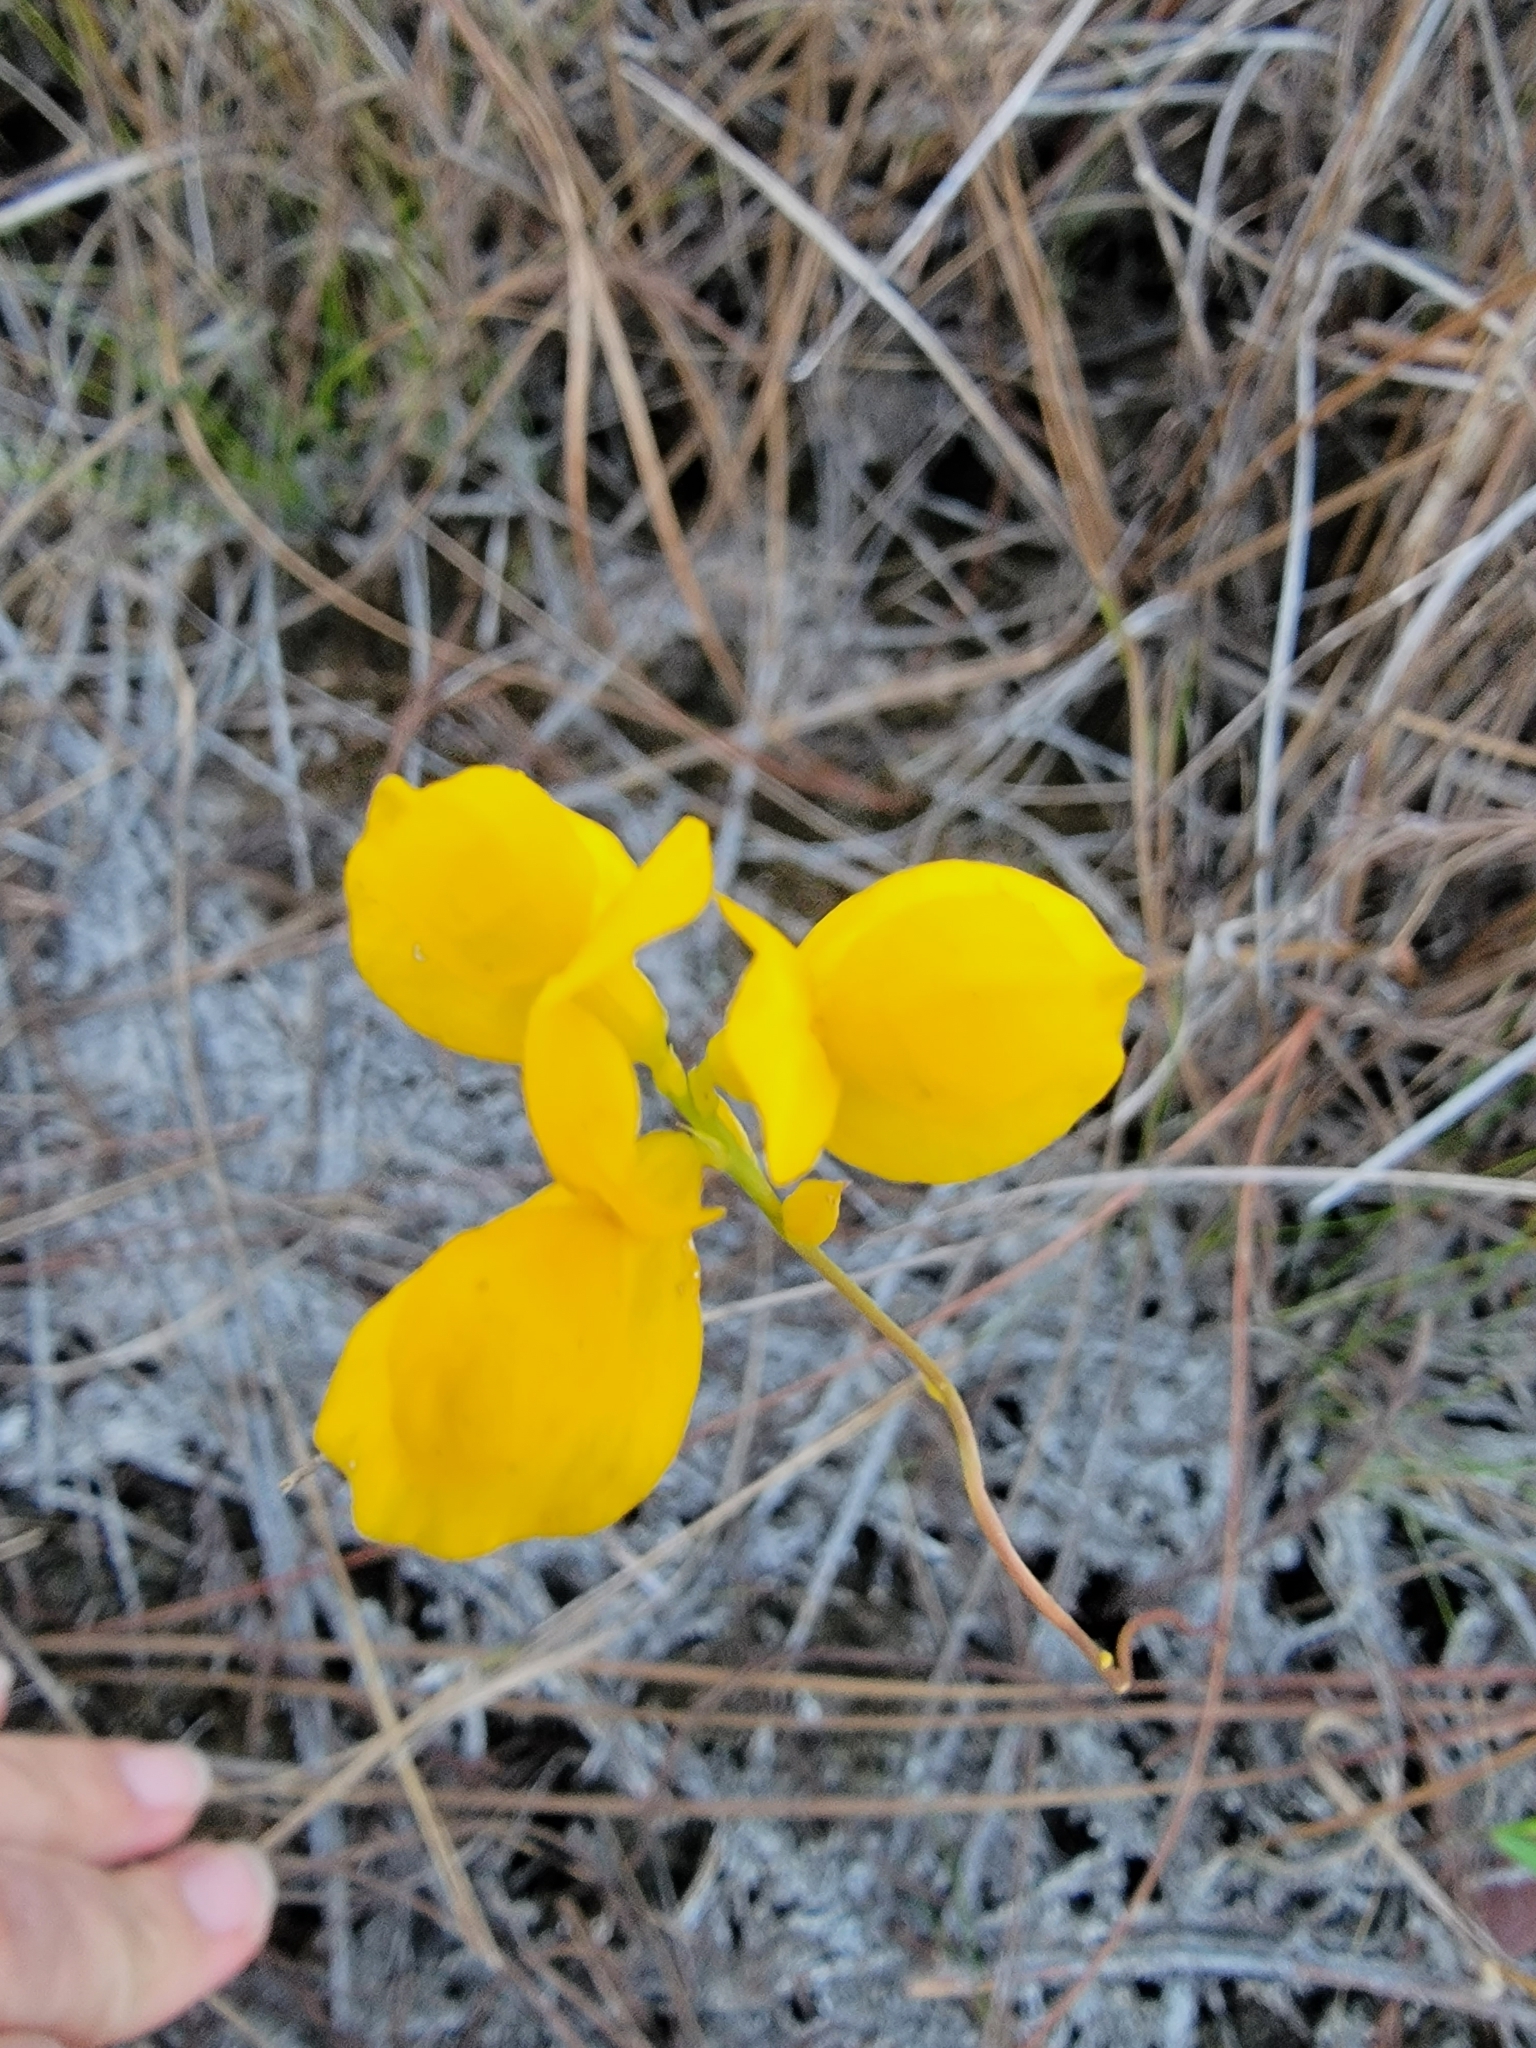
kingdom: Plantae
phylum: Tracheophyta
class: Magnoliopsida
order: Lamiales
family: Lentibulariaceae
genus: Utricularia
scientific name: Utricularia cornuta
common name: Horned bladderwort
